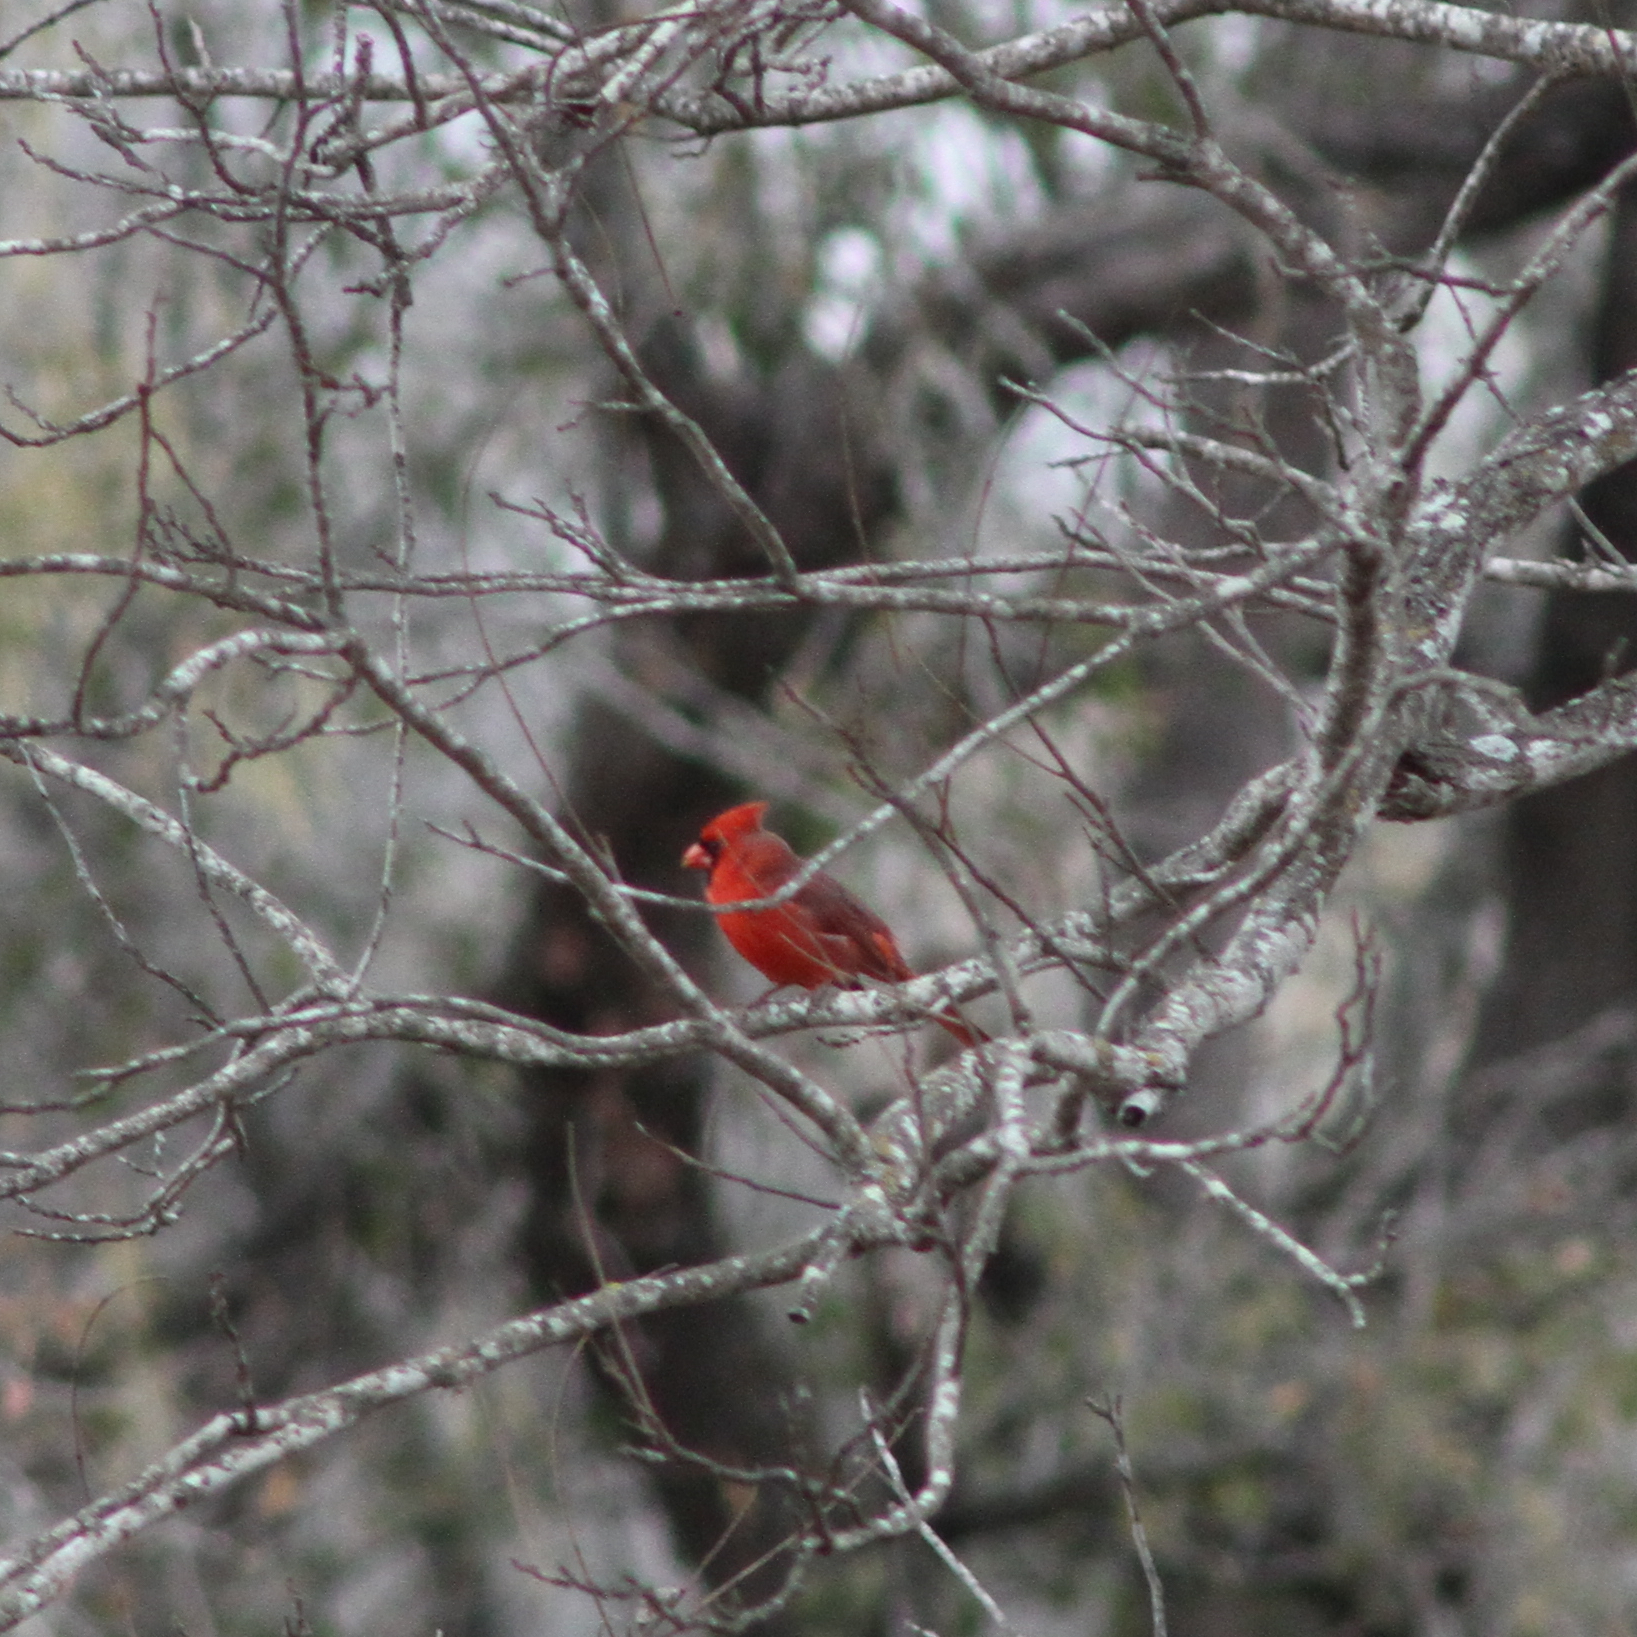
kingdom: Animalia
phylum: Chordata
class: Aves
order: Passeriformes
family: Cardinalidae
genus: Cardinalis
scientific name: Cardinalis cardinalis
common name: Northern cardinal
